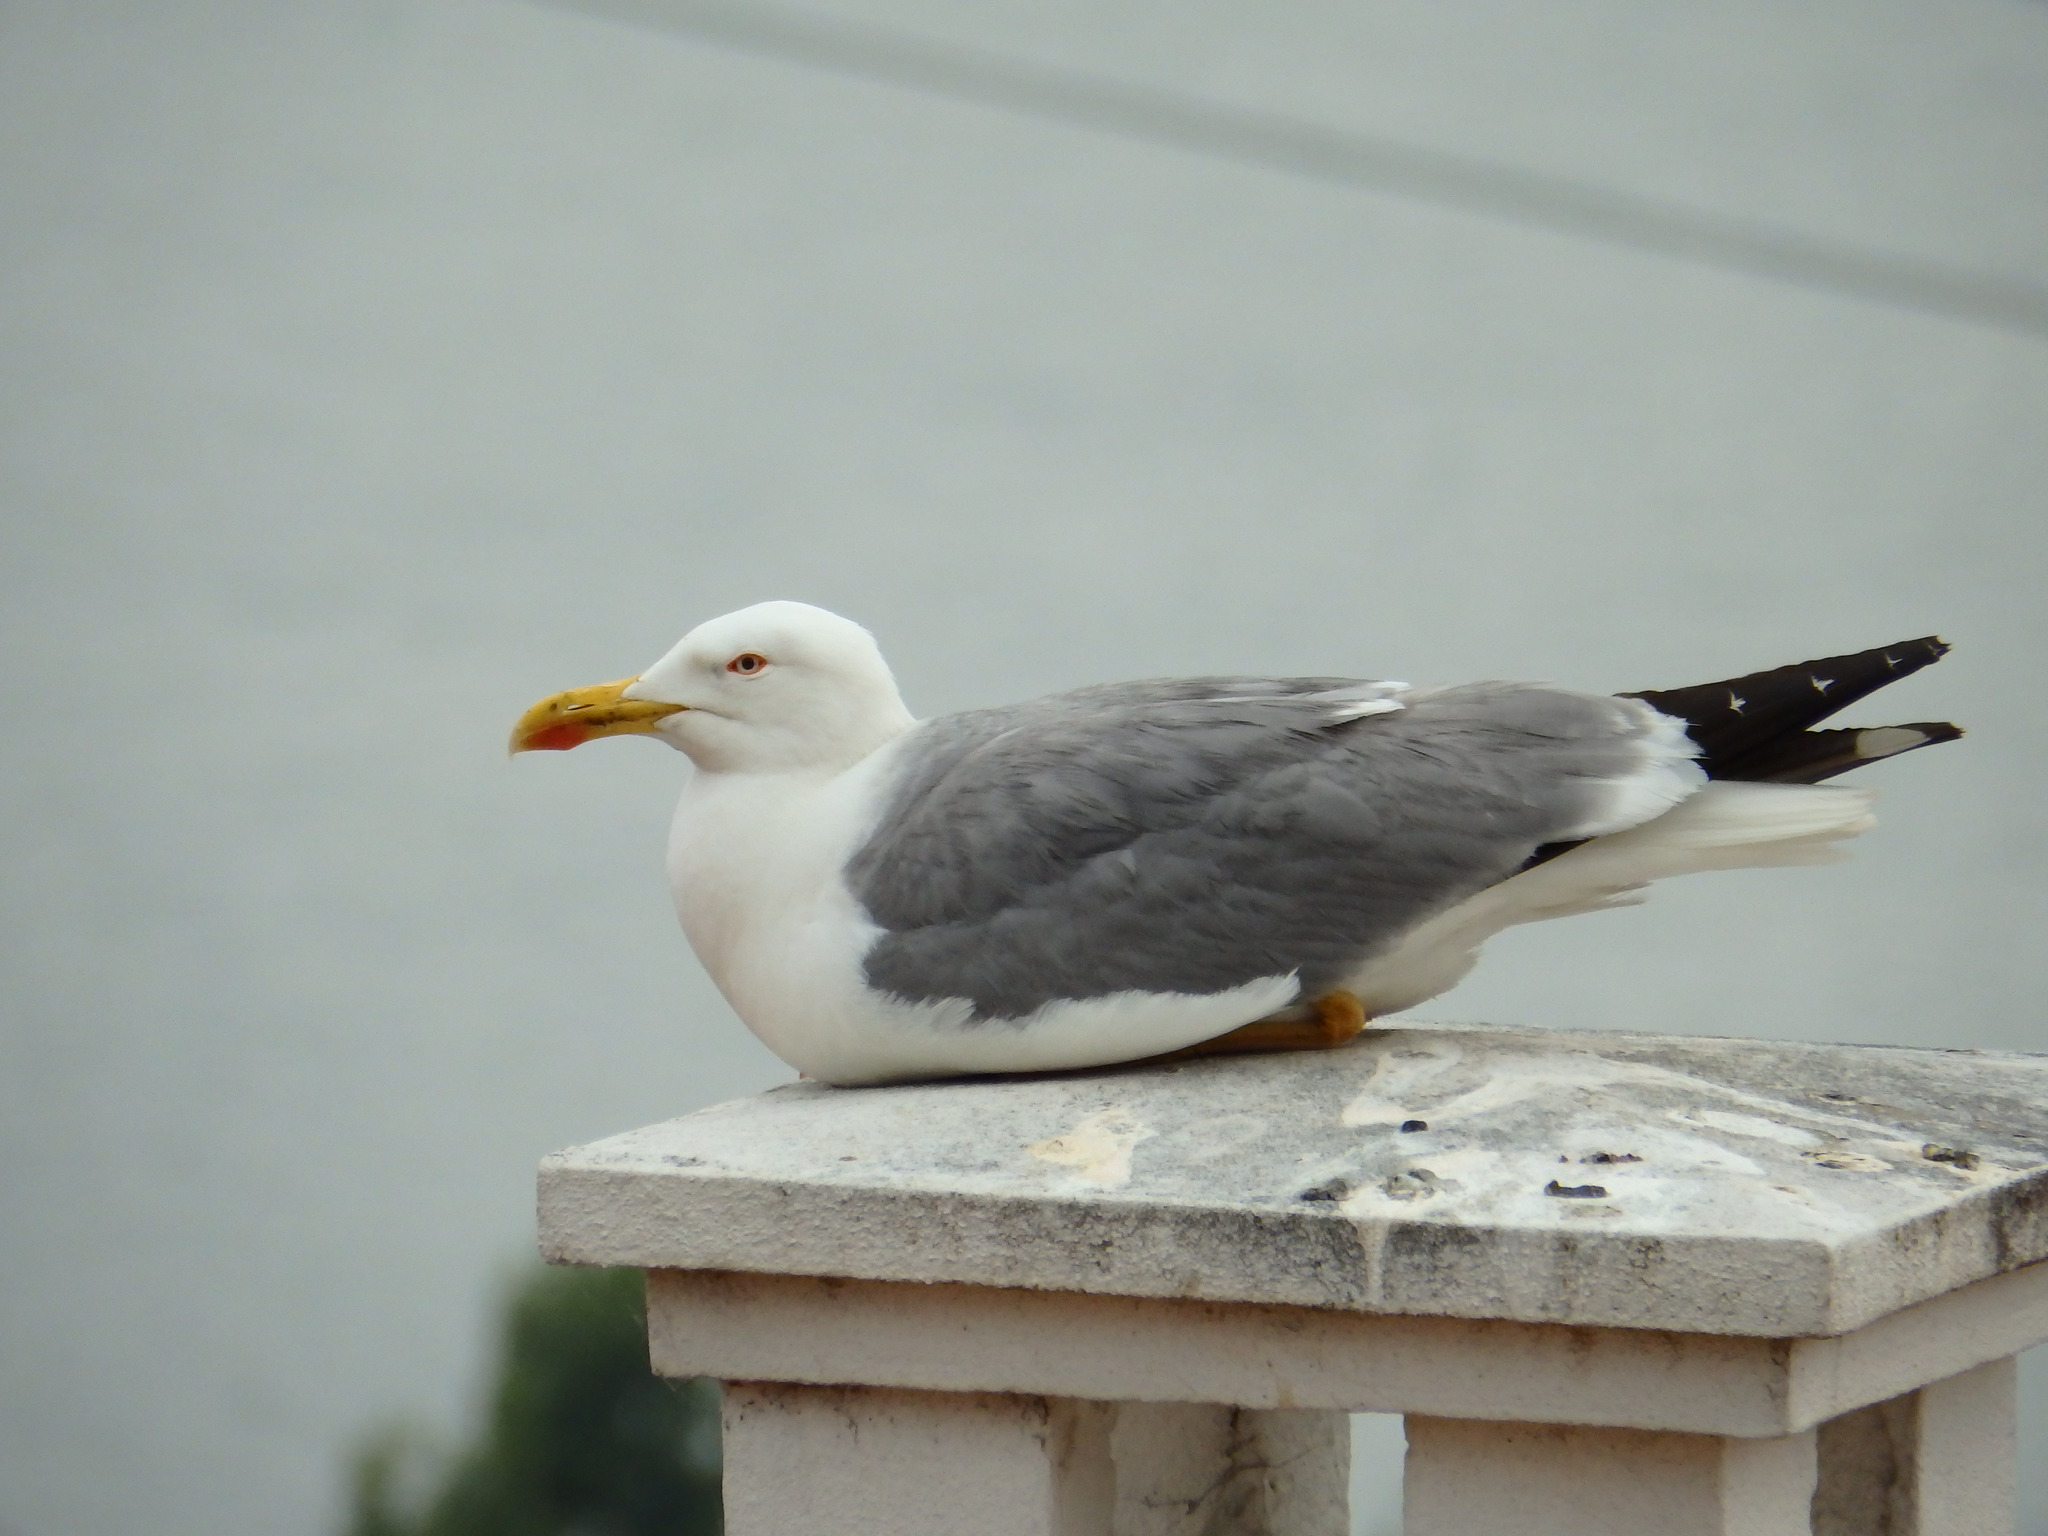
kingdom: Animalia
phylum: Chordata
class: Aves
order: Charadriiformes
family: Laridae
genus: Larus
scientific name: Larus michahellis
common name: Yellow-legged gull
